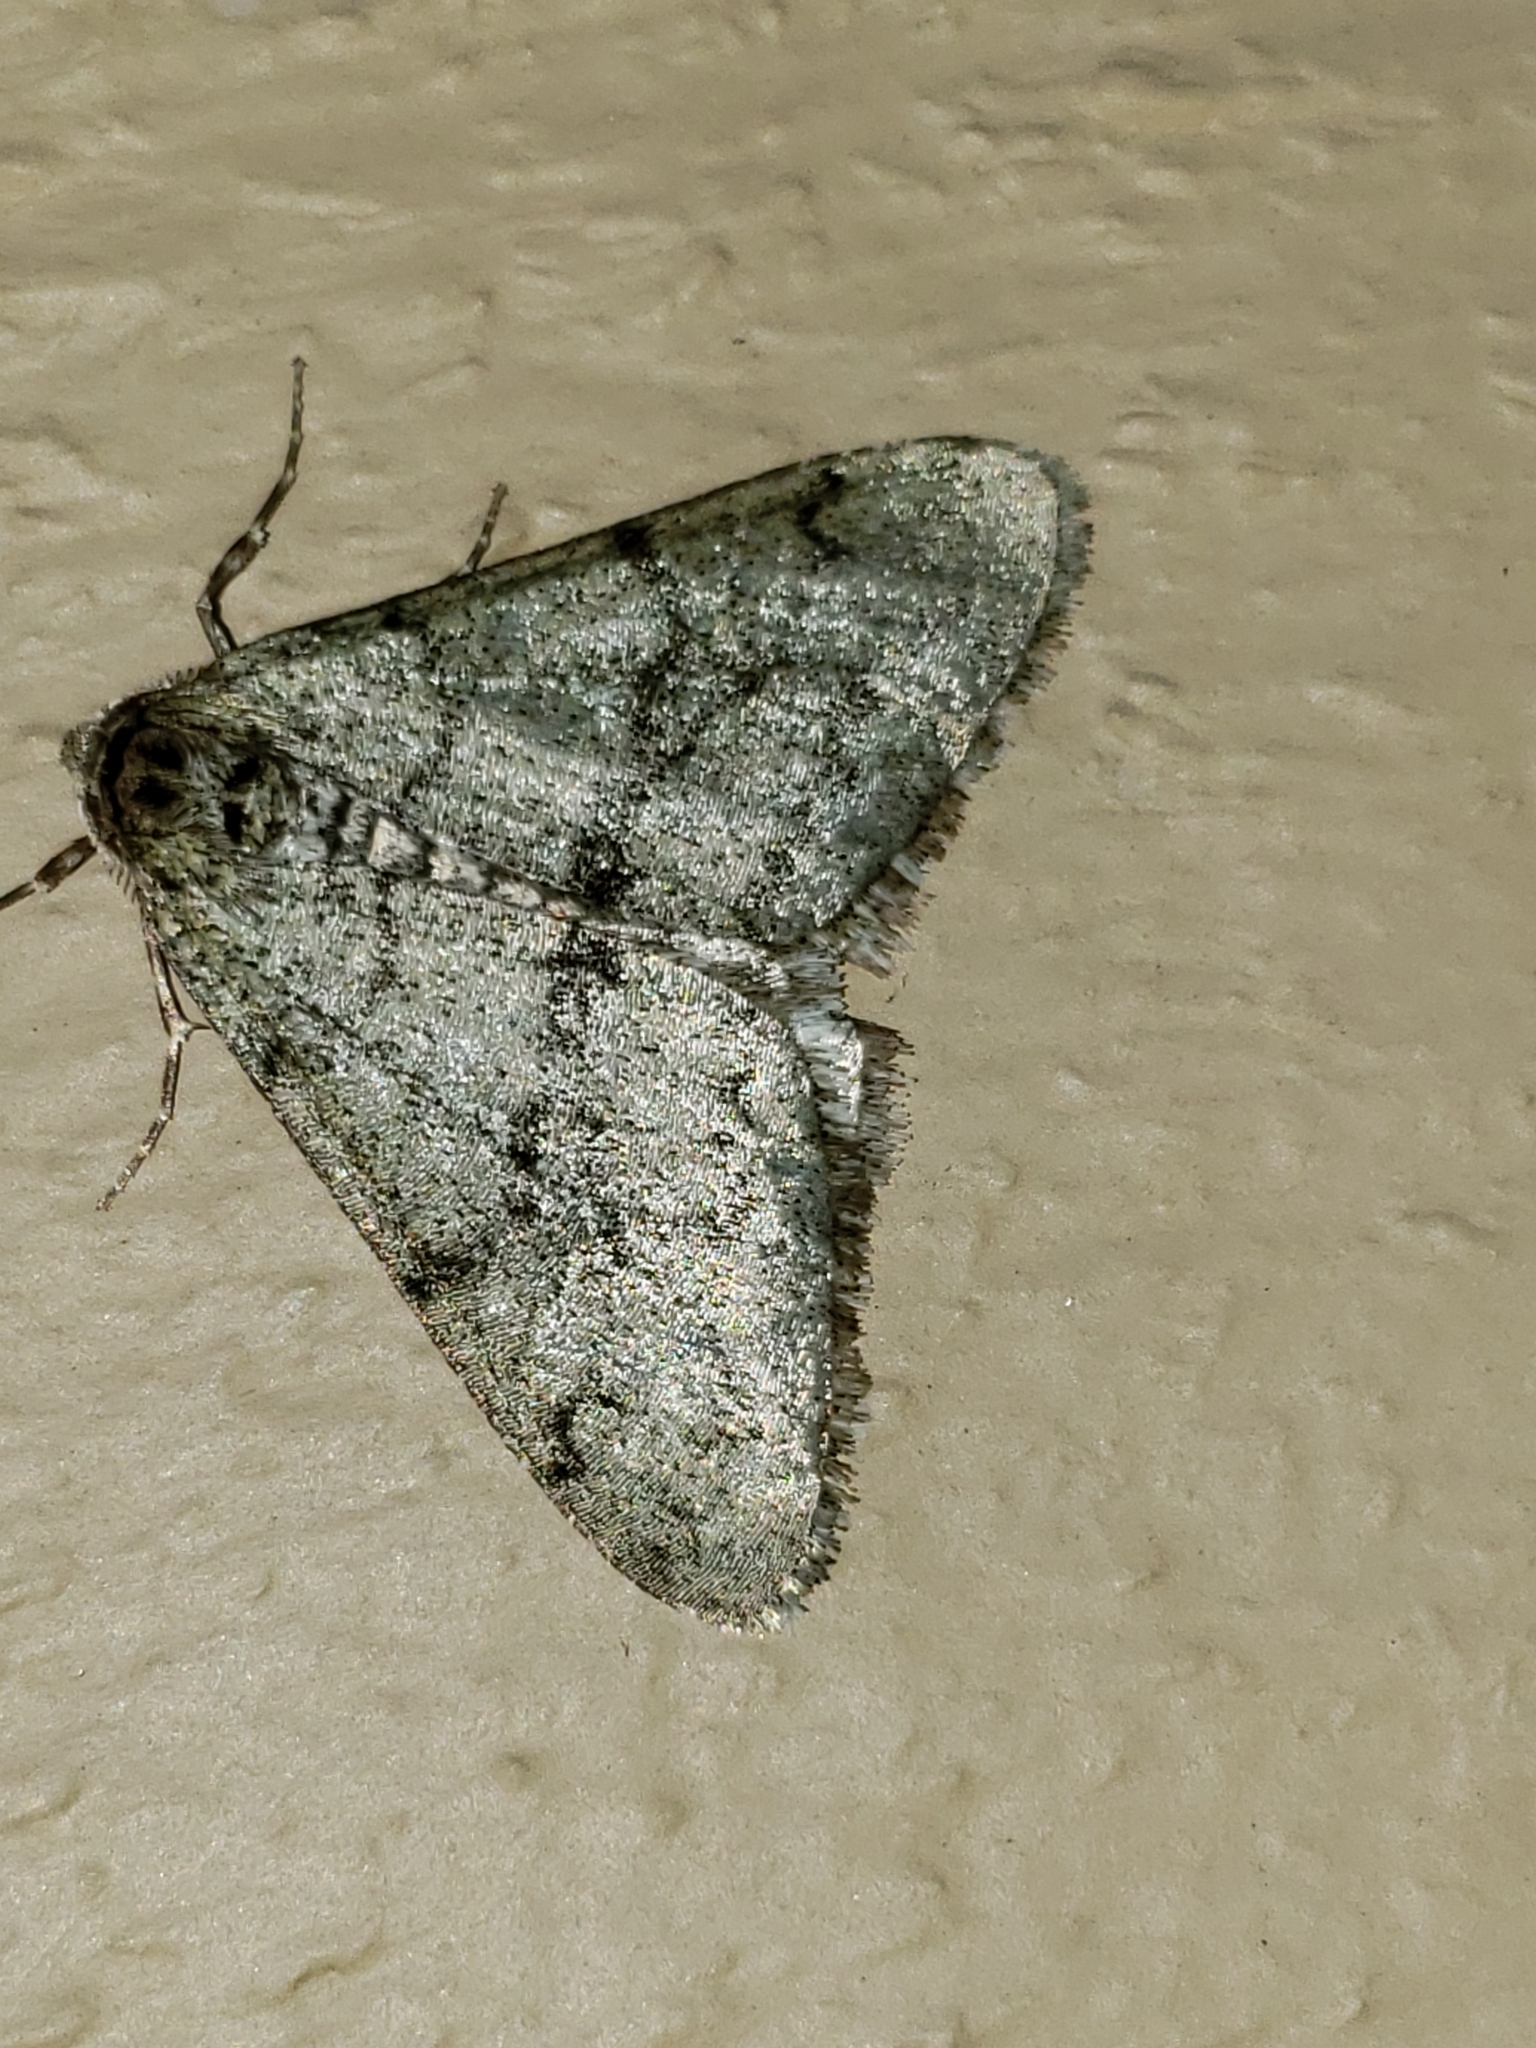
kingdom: Animalia
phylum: Arthropoda
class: Insecta
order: Lepidoptera
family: Geometridae
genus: Phigalia
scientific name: Phigalia strigataria
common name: Small phigalia
